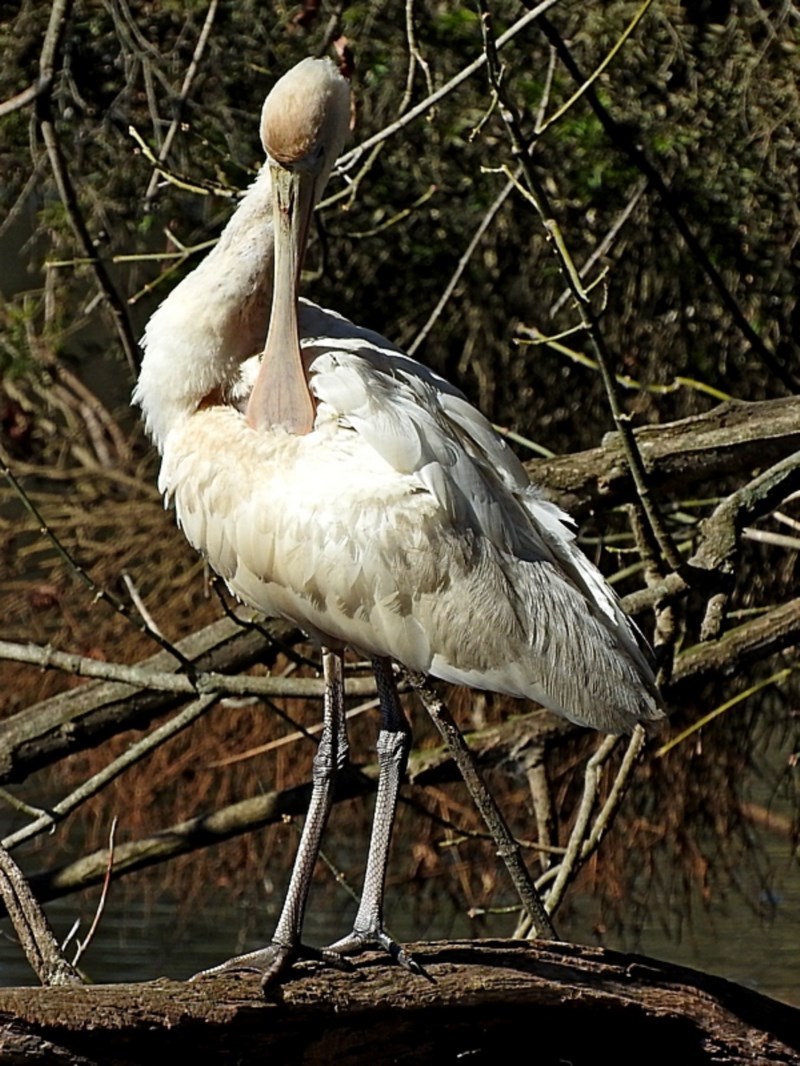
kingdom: Animalia
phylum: Chordata
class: Aves
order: Pelecaniformes
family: Threskiornithidae
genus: Platalea
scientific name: Platalea flavipes
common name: Yellow-billed spoonbill
